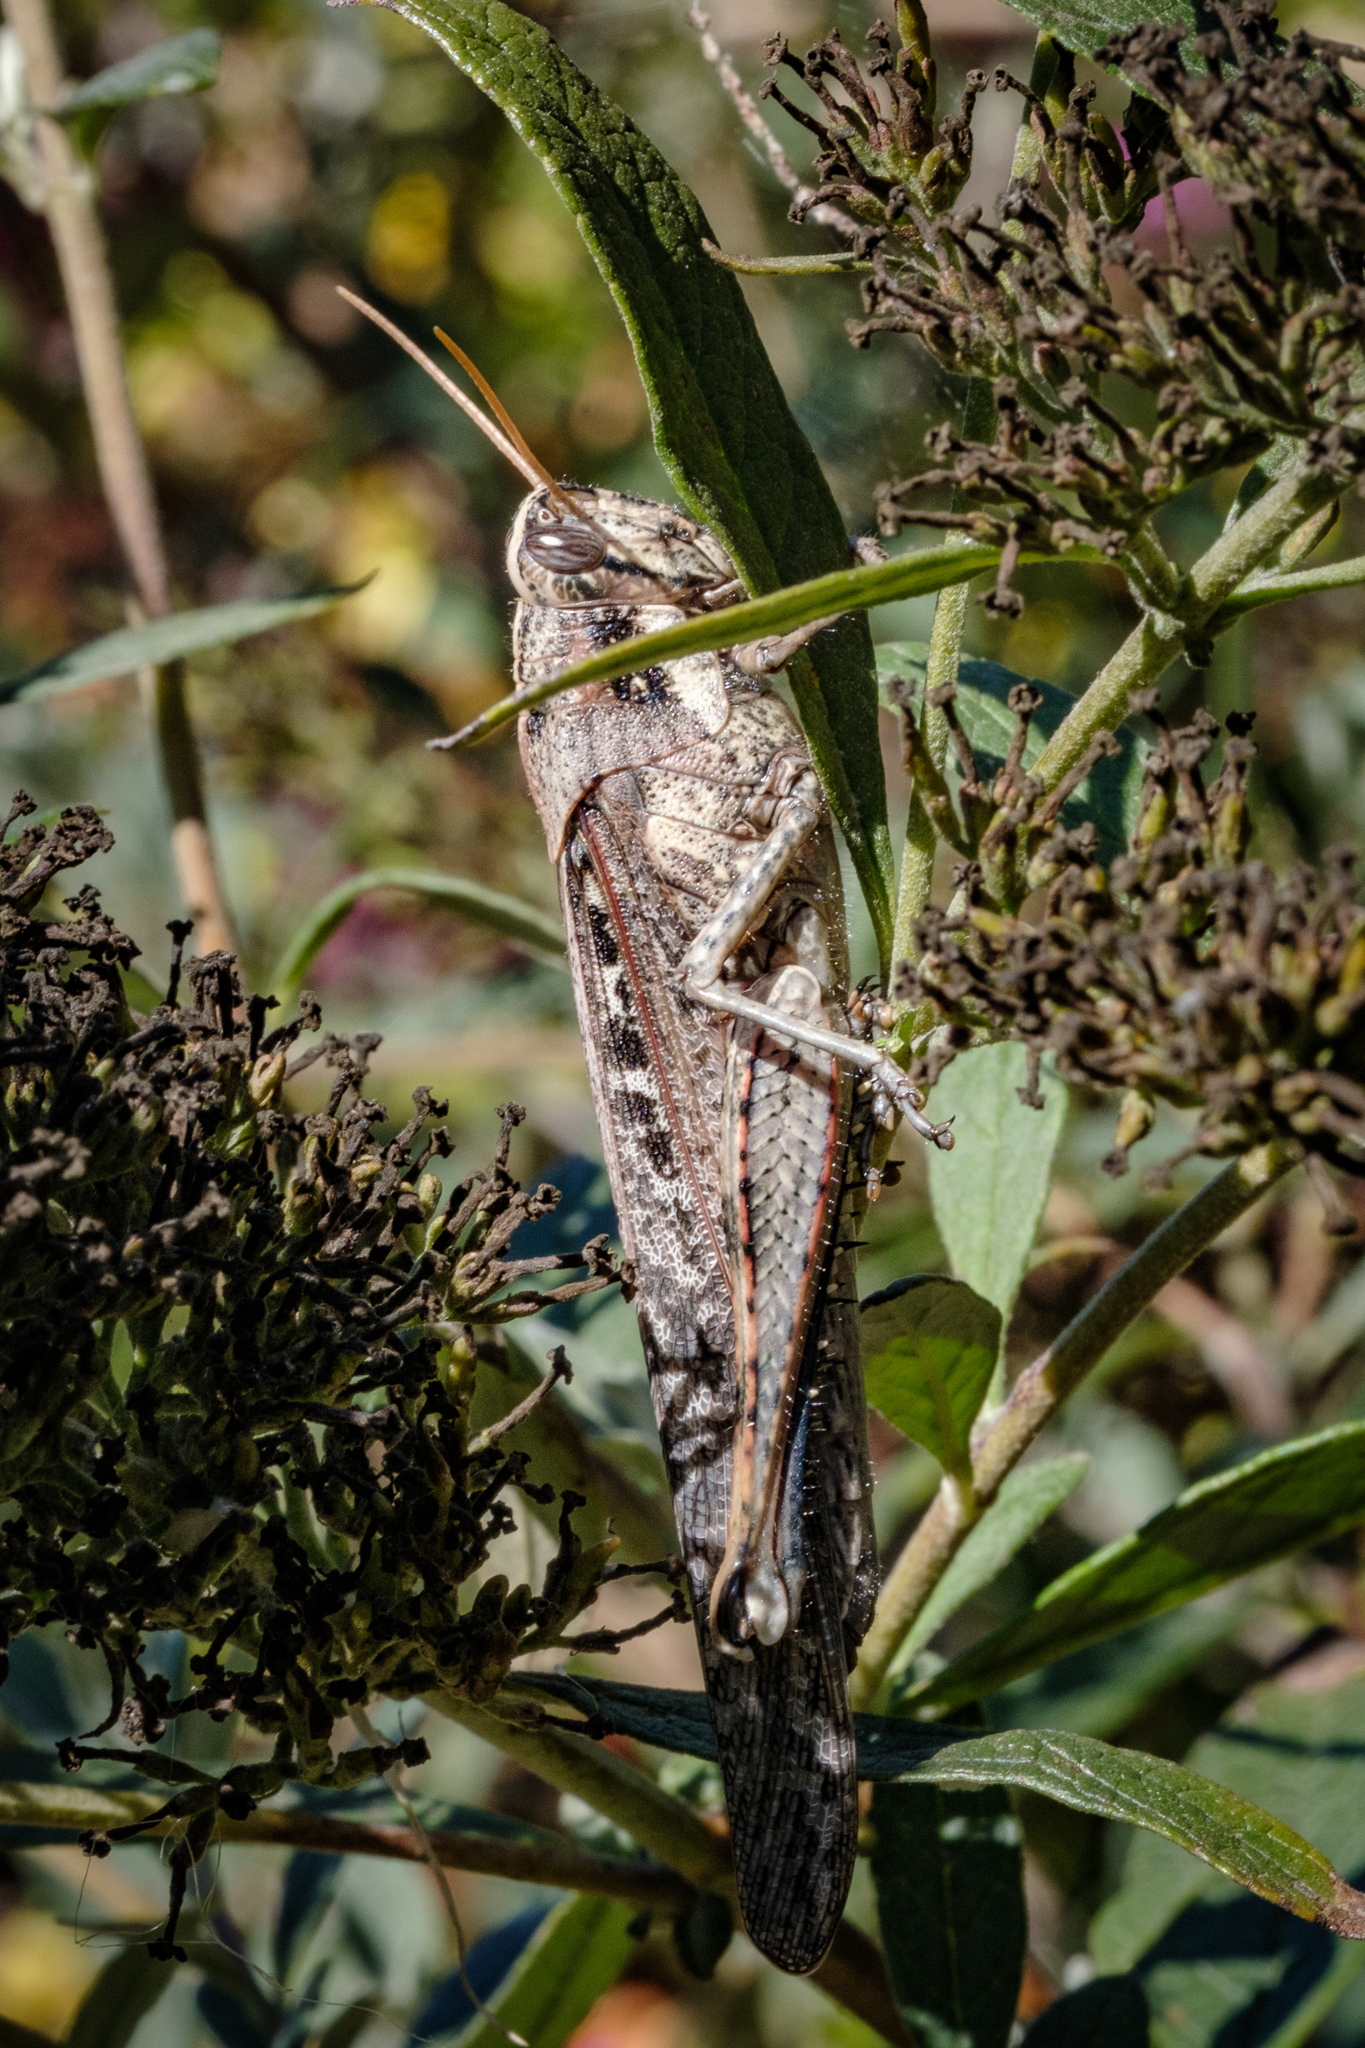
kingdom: Animalia
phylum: Arthropoda
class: Insecta
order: Orthoptera
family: Acrididae
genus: Schistocerca
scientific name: Schistocerca nitens
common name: Vagrant grasshopper
